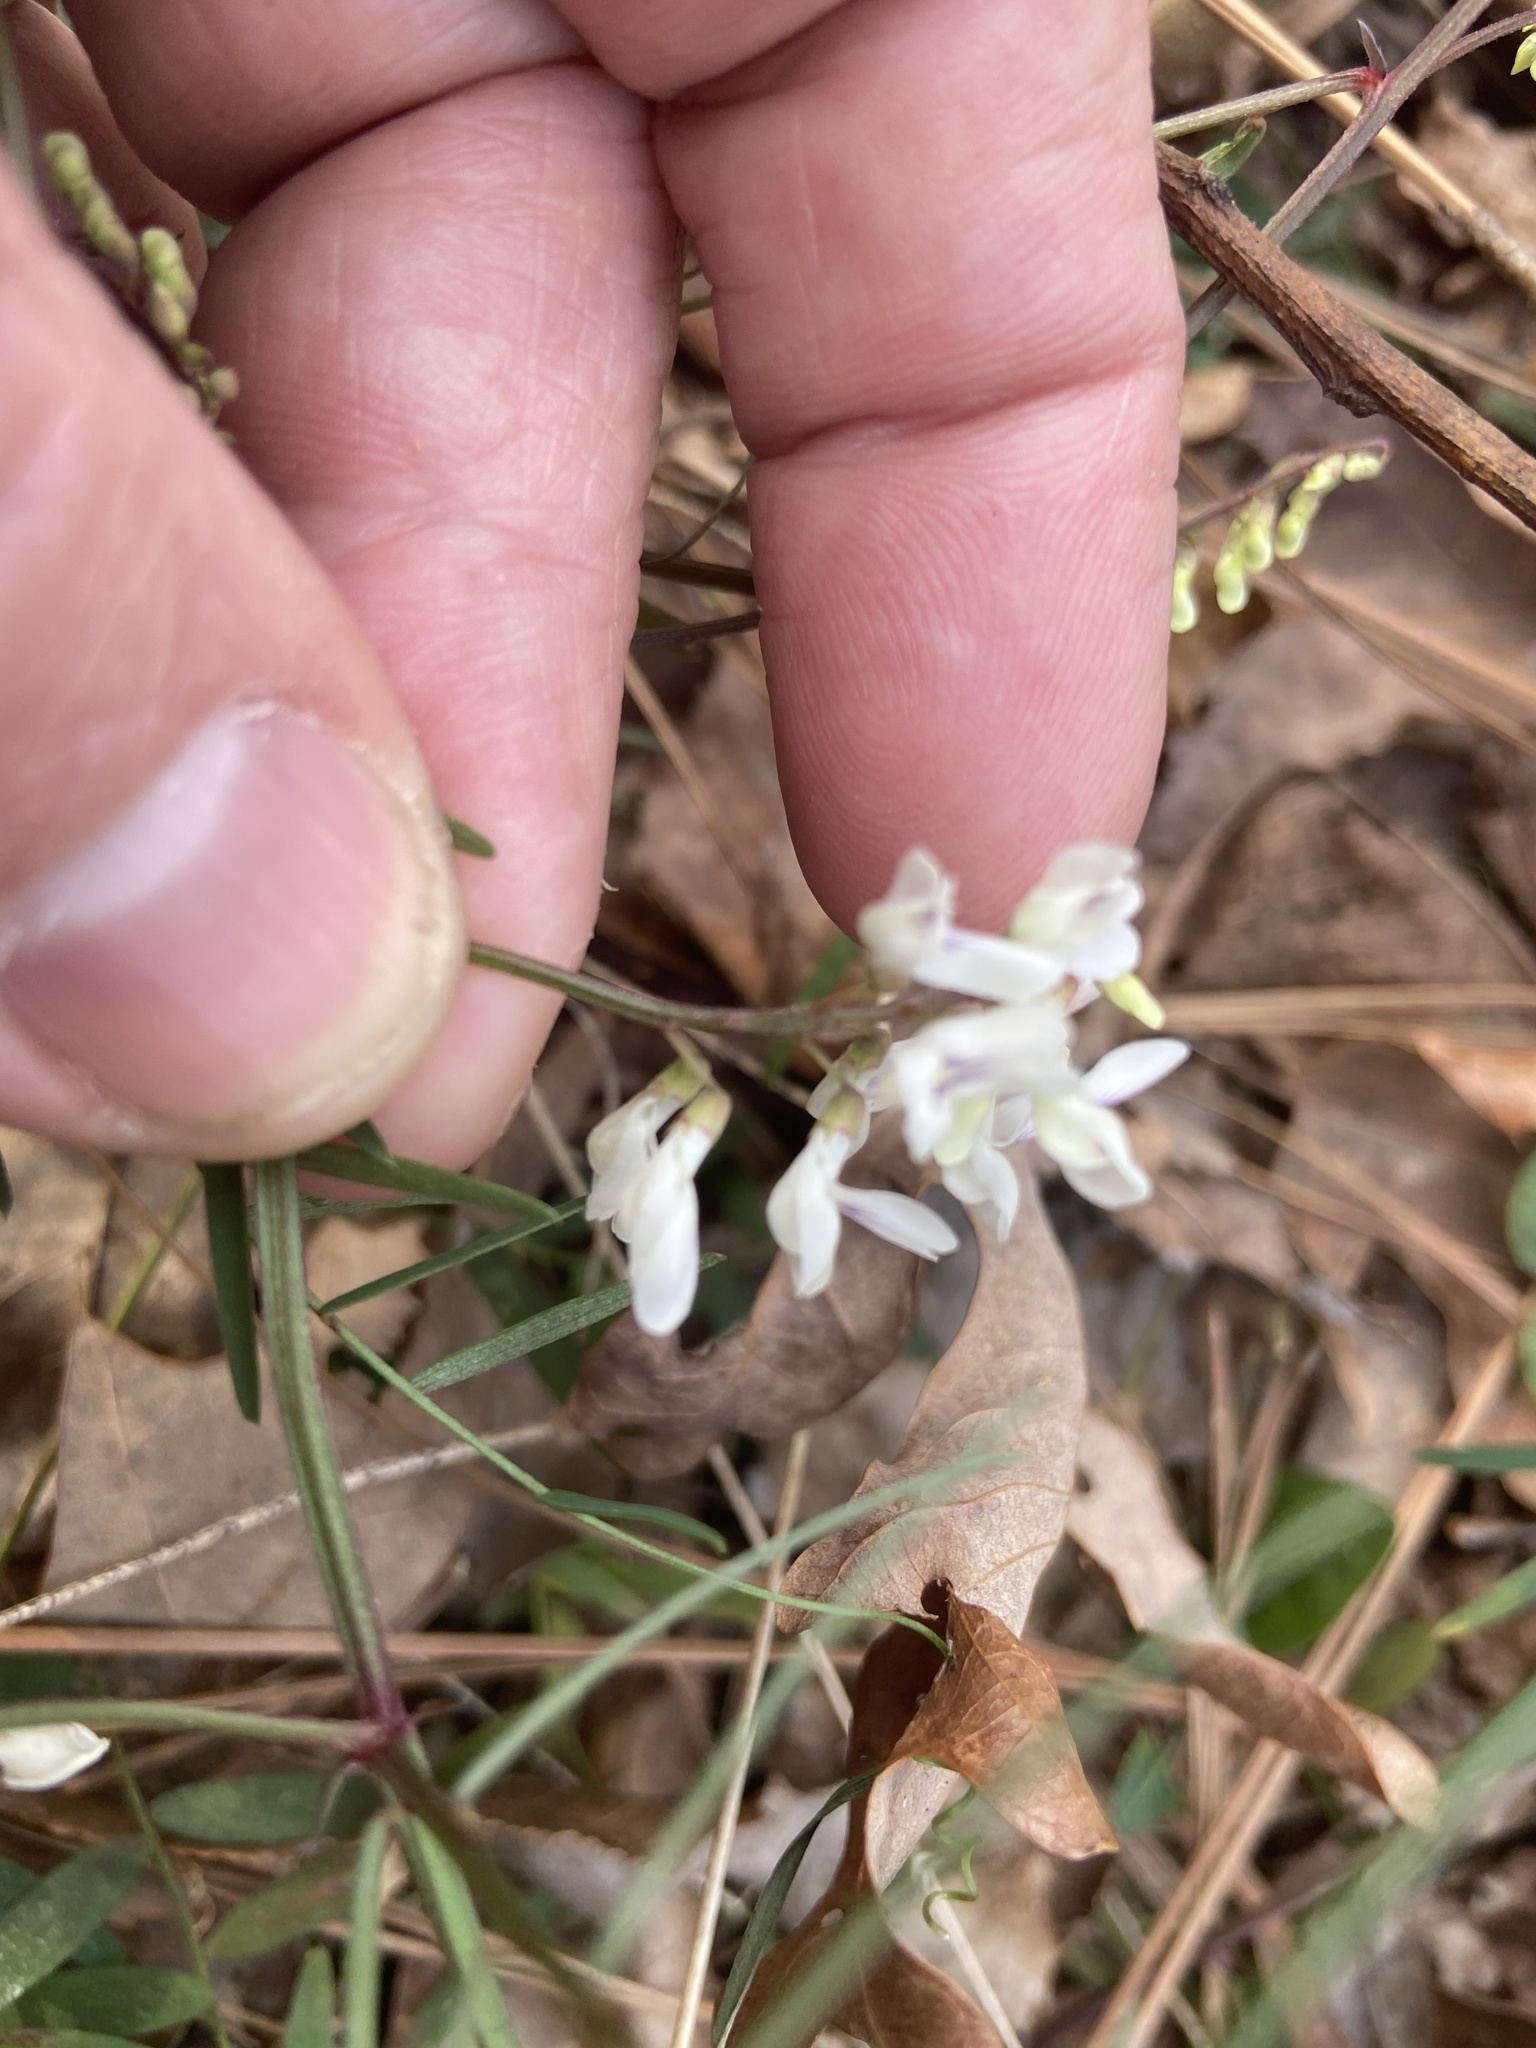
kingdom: Plantae
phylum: Tracheophyta
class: Magnoliopsida
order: Fabales
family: Fabaceae
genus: Vicia
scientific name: Vicia caroliniana
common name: Carolina vetch
